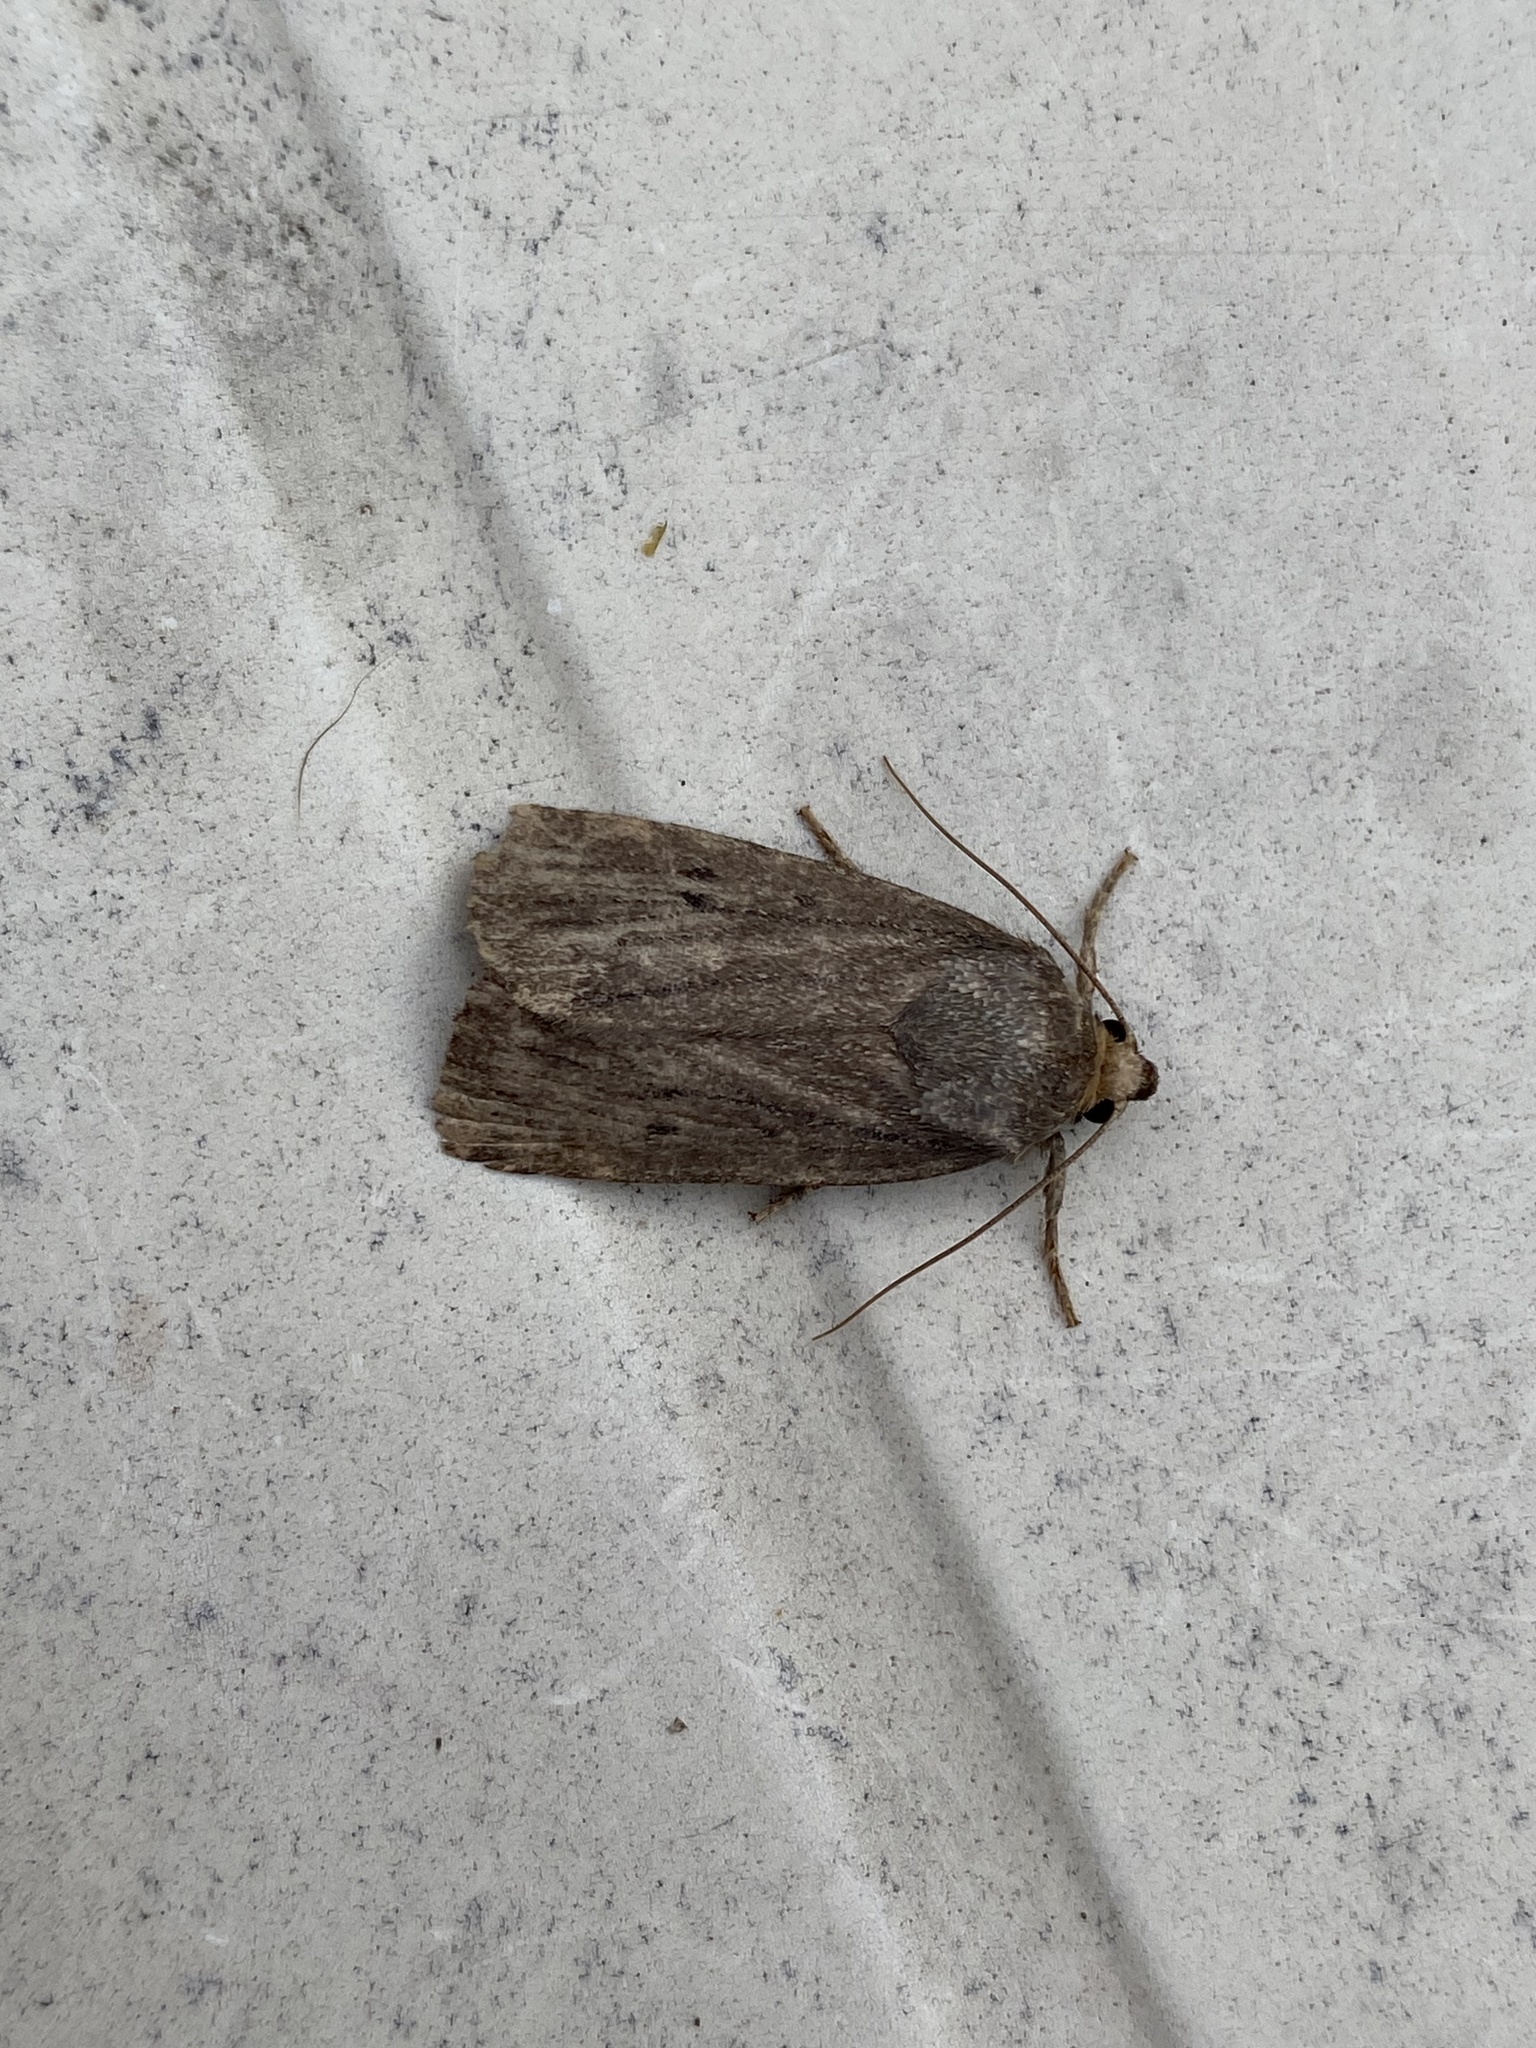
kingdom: Animalia
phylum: Arthropoda
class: Insecta
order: Lepidoptera
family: Noctuidae
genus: Amphipyra
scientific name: Amphipyra tragopoginis
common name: Mouse moth
